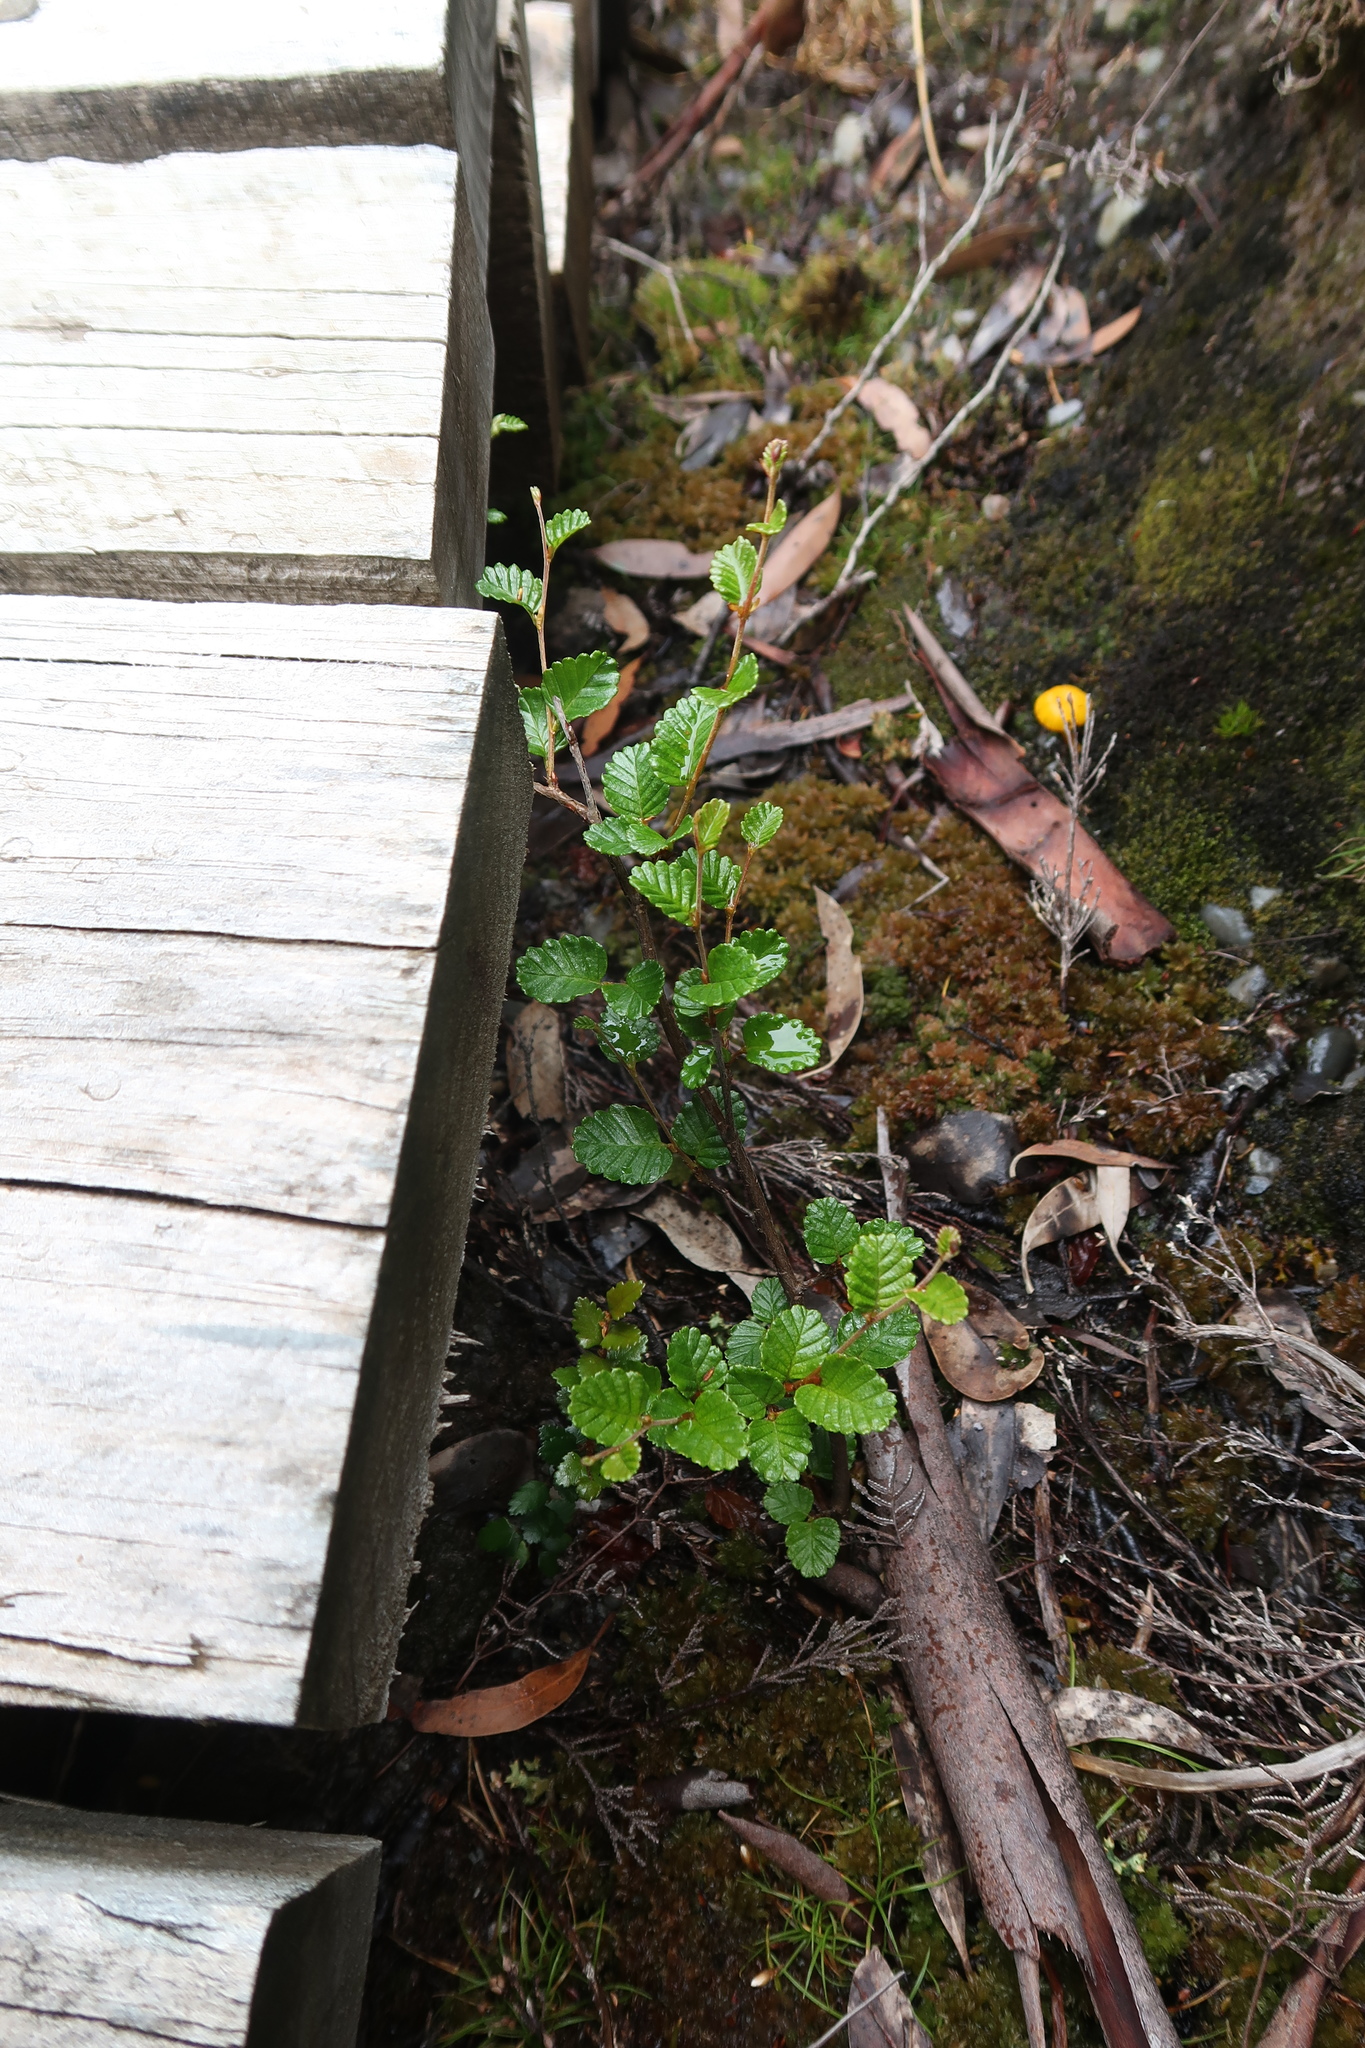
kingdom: Plantae
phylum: Tracheophyta
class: Magnoliopsida
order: Fagales
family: Nothofagaceae
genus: Nothofagus
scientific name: Nothofagus gunnii
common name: Tanglefoot
